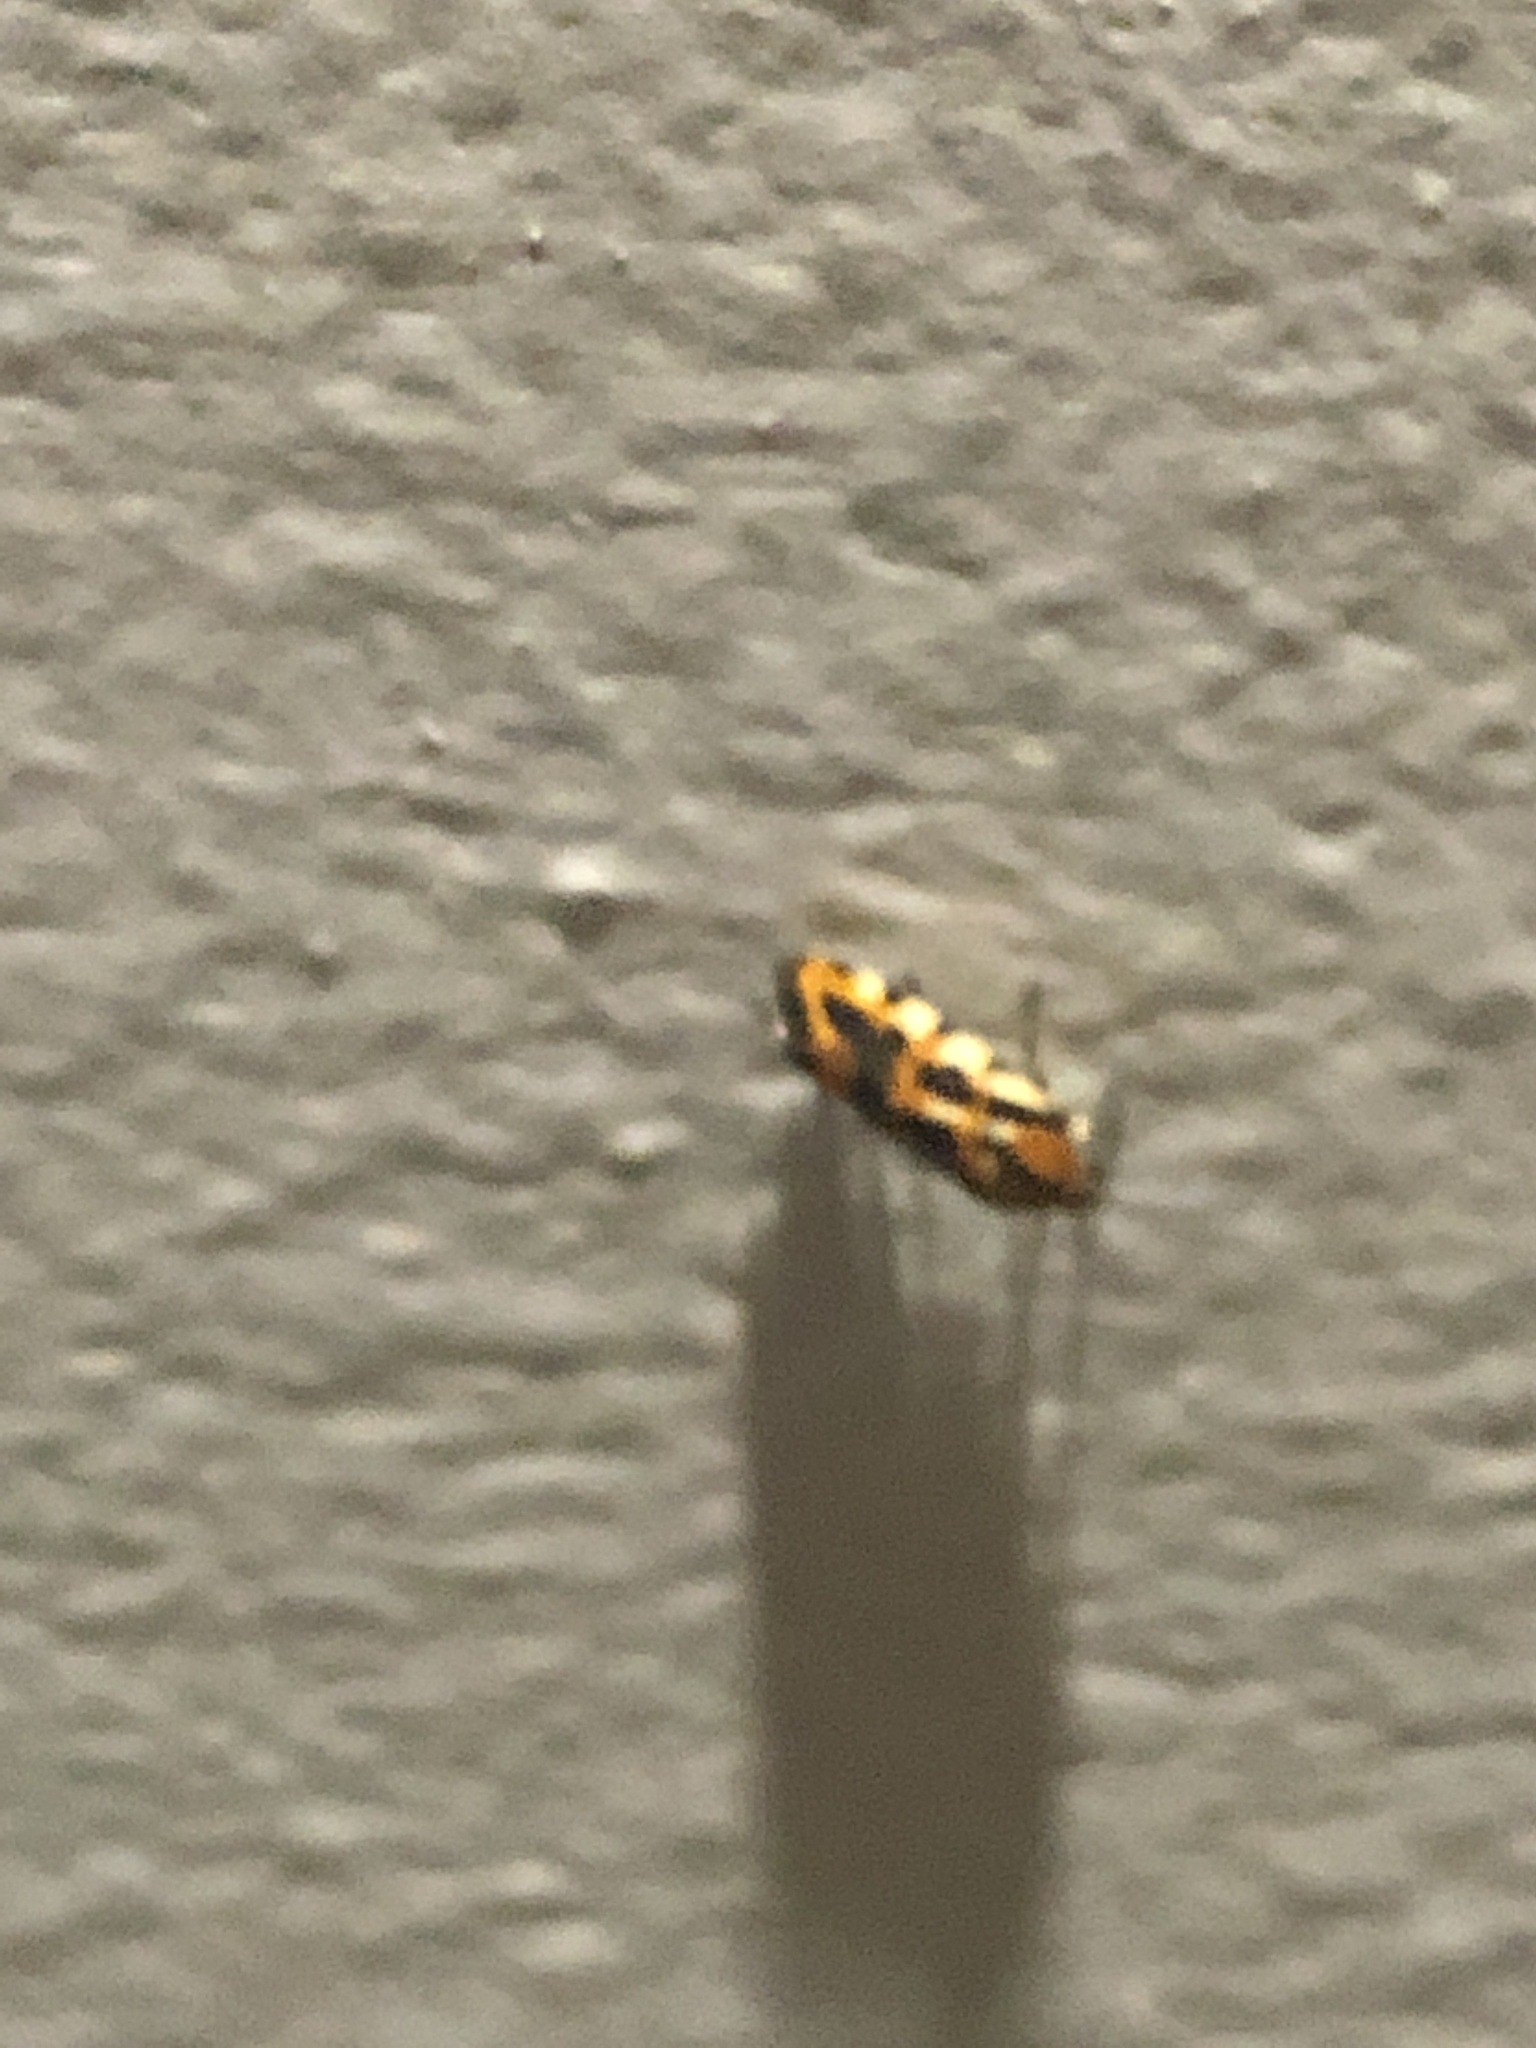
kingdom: Animalia
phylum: Arthropoda
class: Insecta
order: Lepidoptera
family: Noctuidae
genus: Acontia
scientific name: Acontia leo
